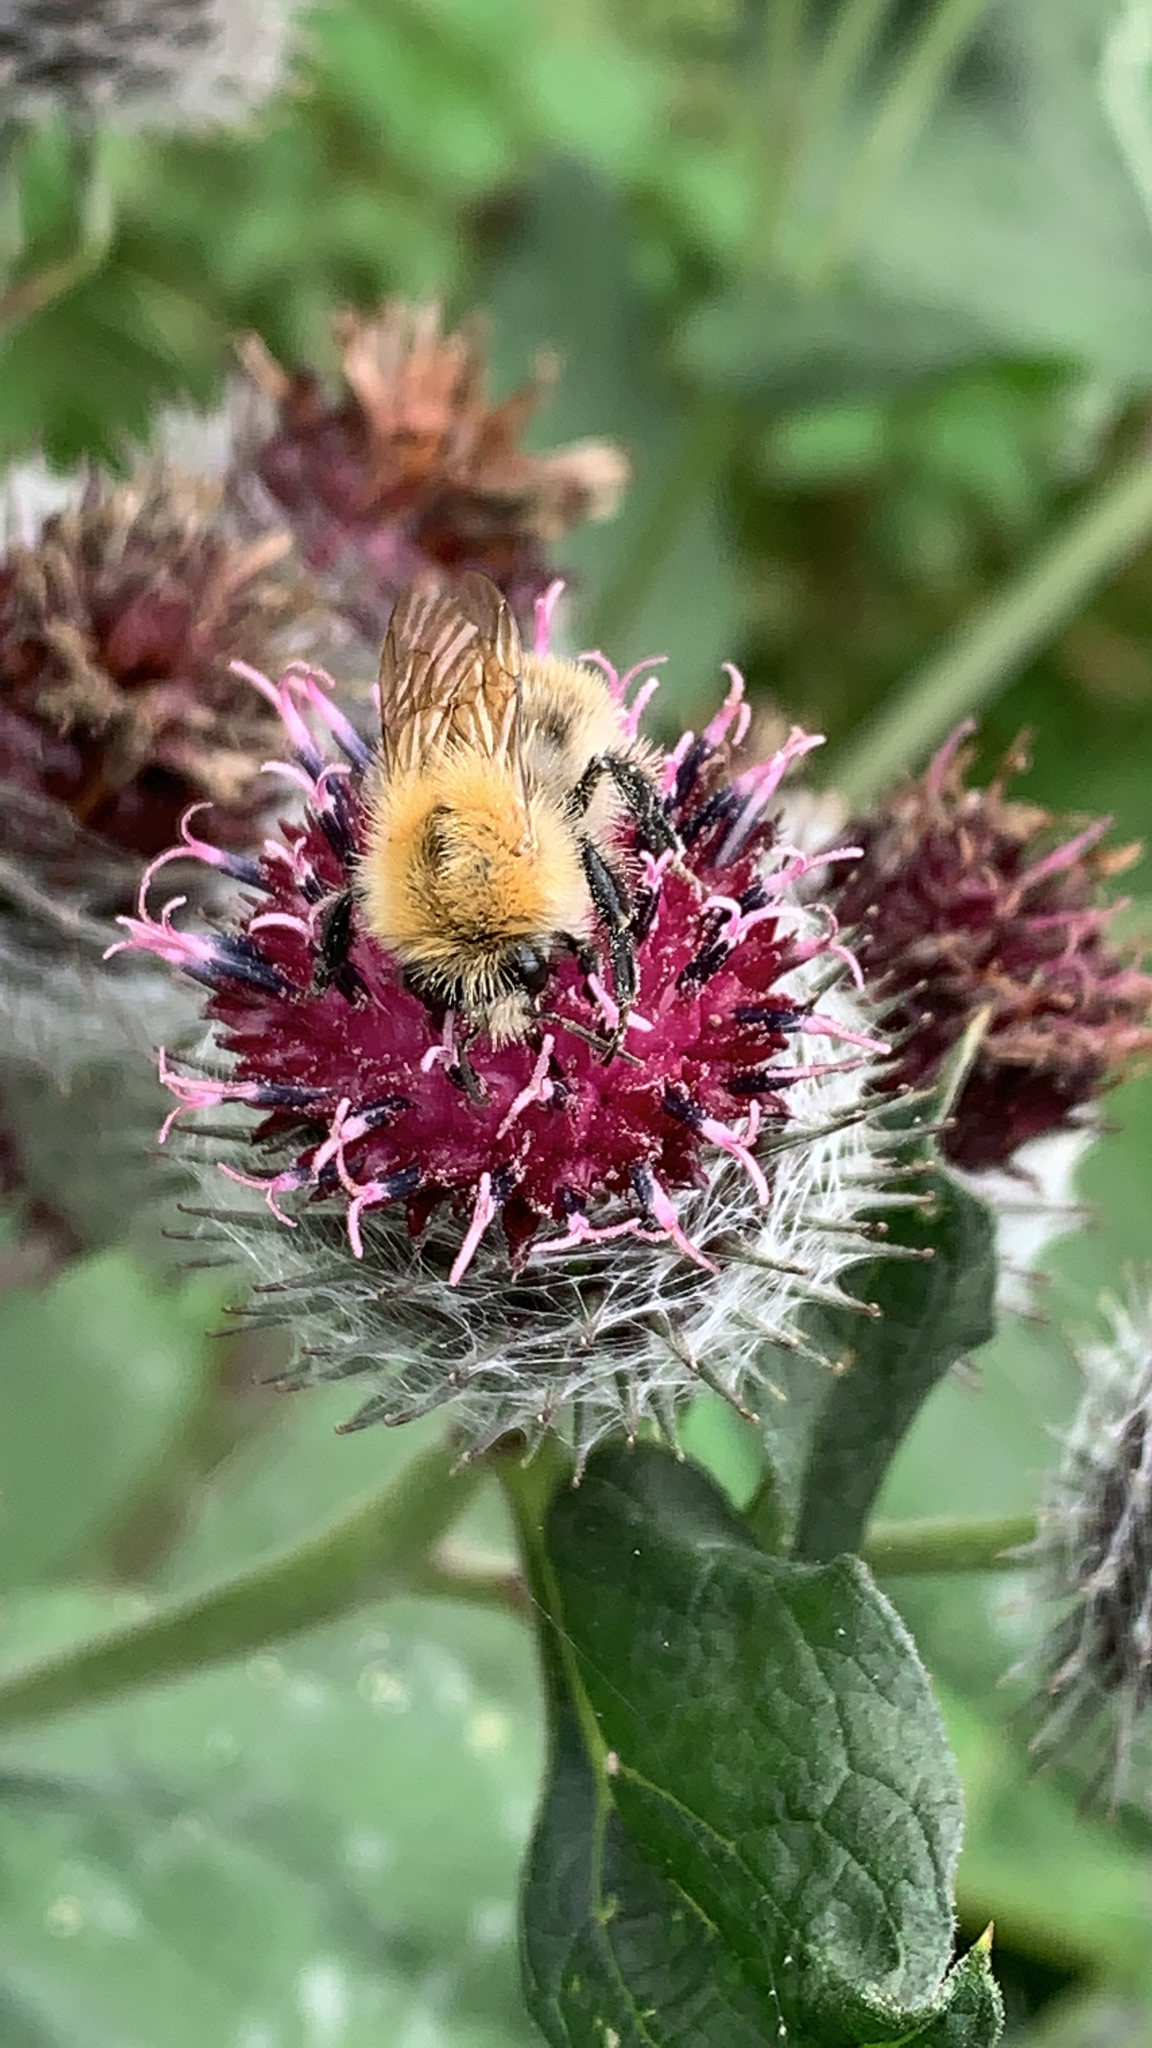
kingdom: Animalia
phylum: Arthropoda
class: Insecta
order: Hymenoptera
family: Apidae
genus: Bombus
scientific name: Bombus pascuorum
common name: Common carder bee
